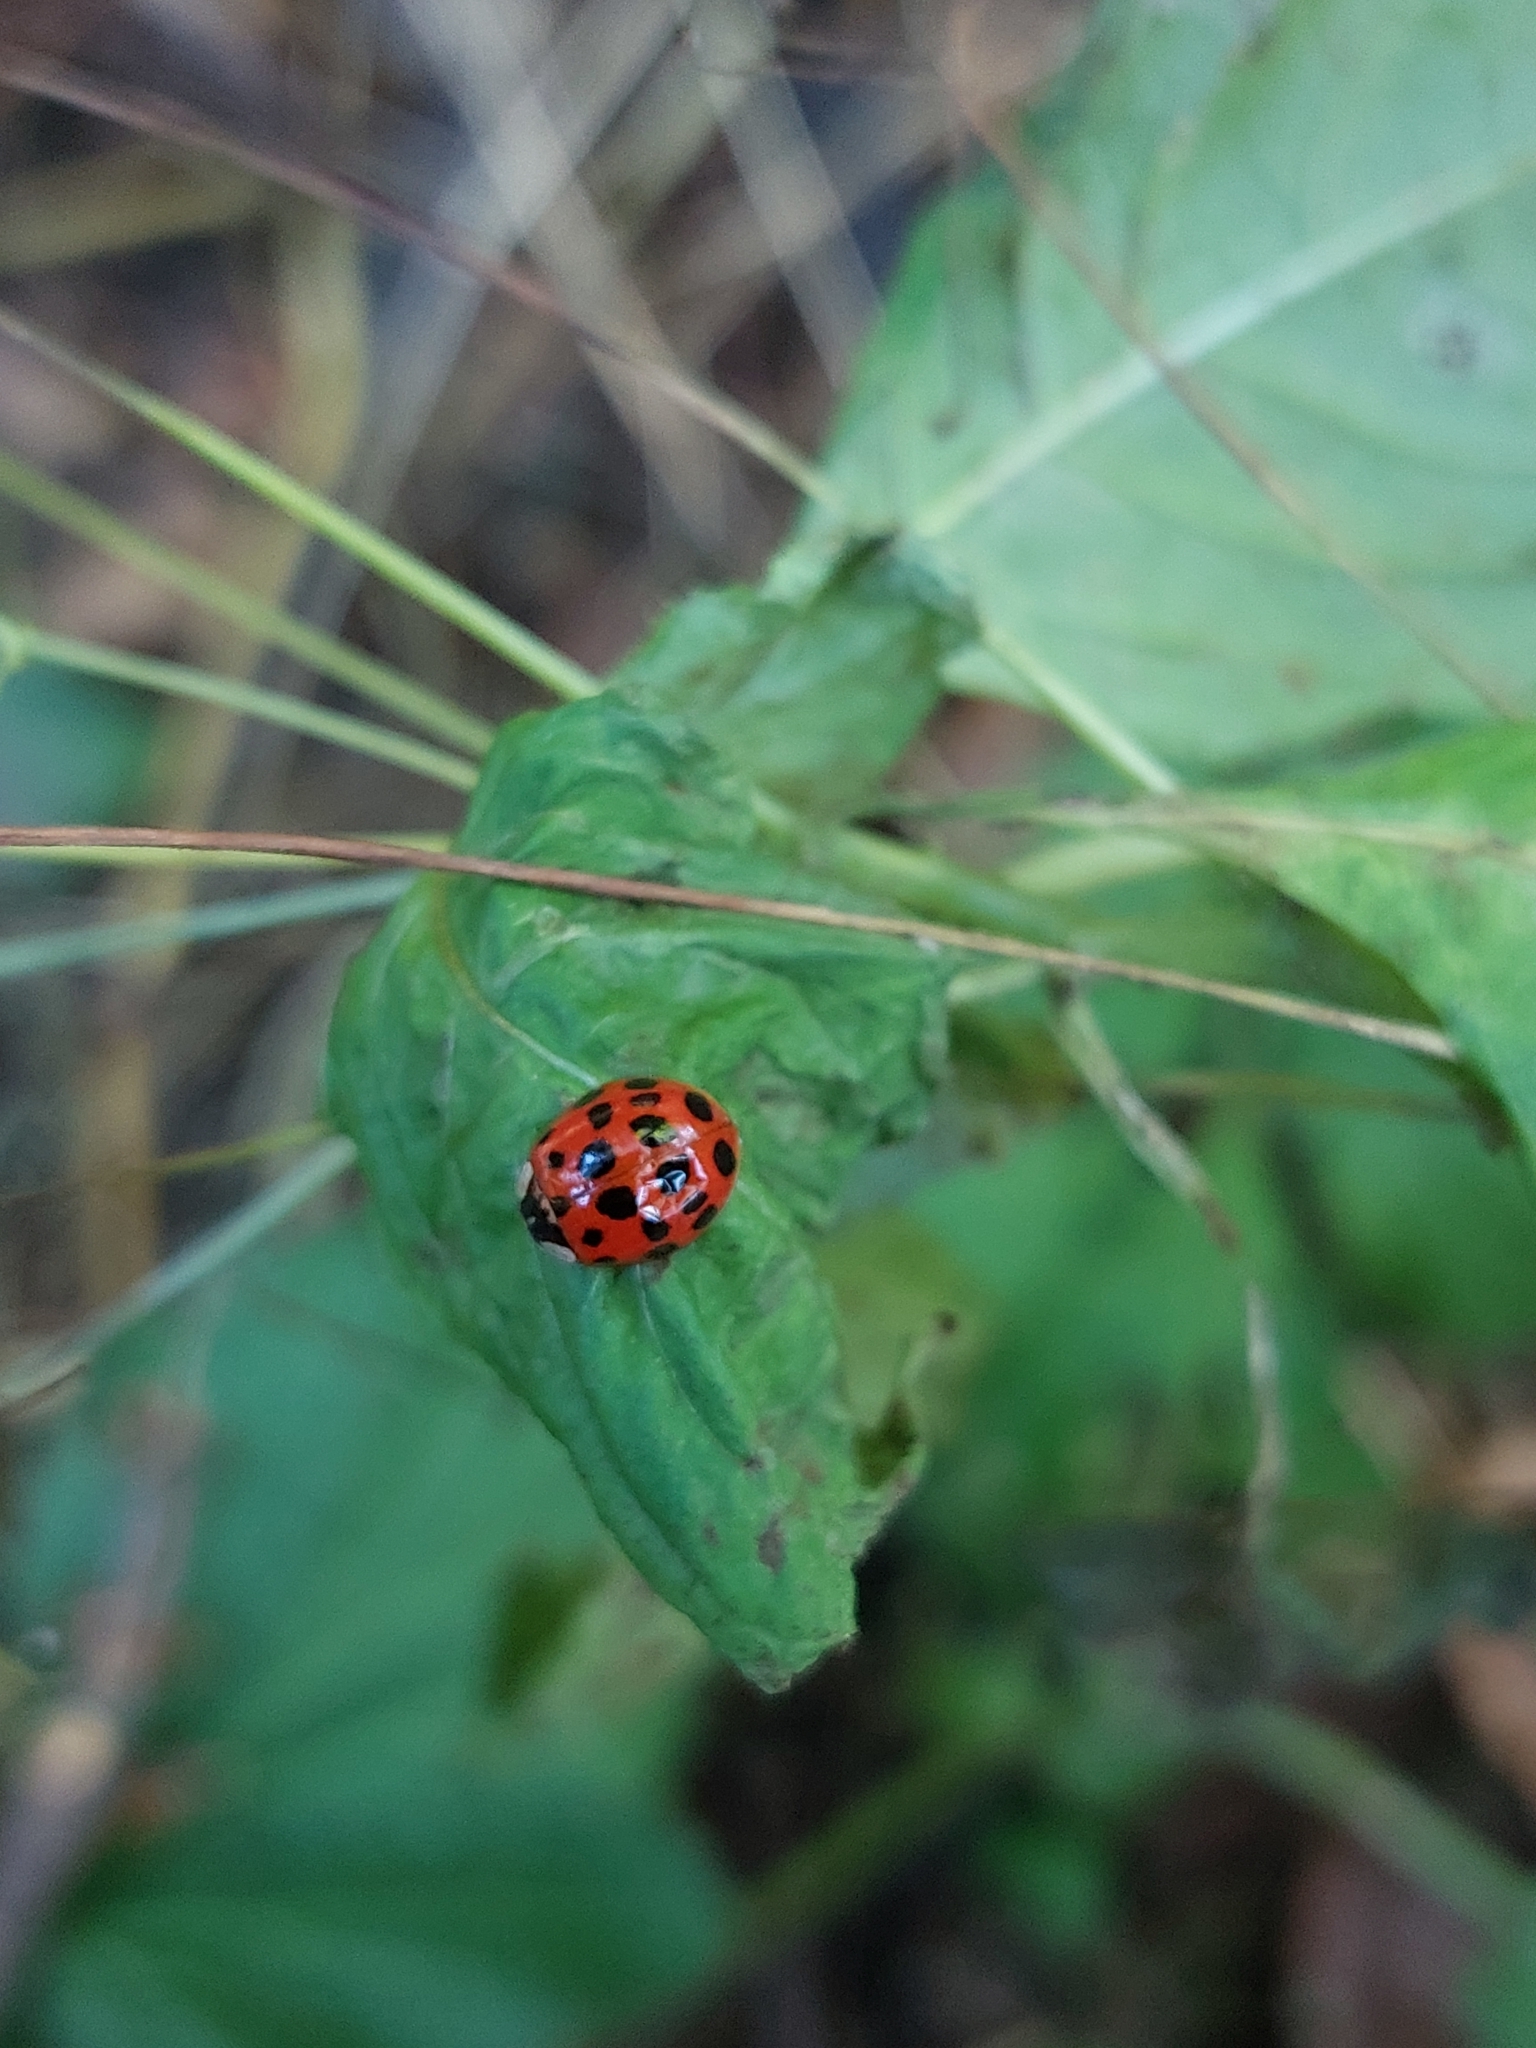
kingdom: Animalia
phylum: Arthropoda
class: Insecta
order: Coleoptera
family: Coccinellidae
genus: Harmonia
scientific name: Harmonia axyridis
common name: Harlequin ladybird
